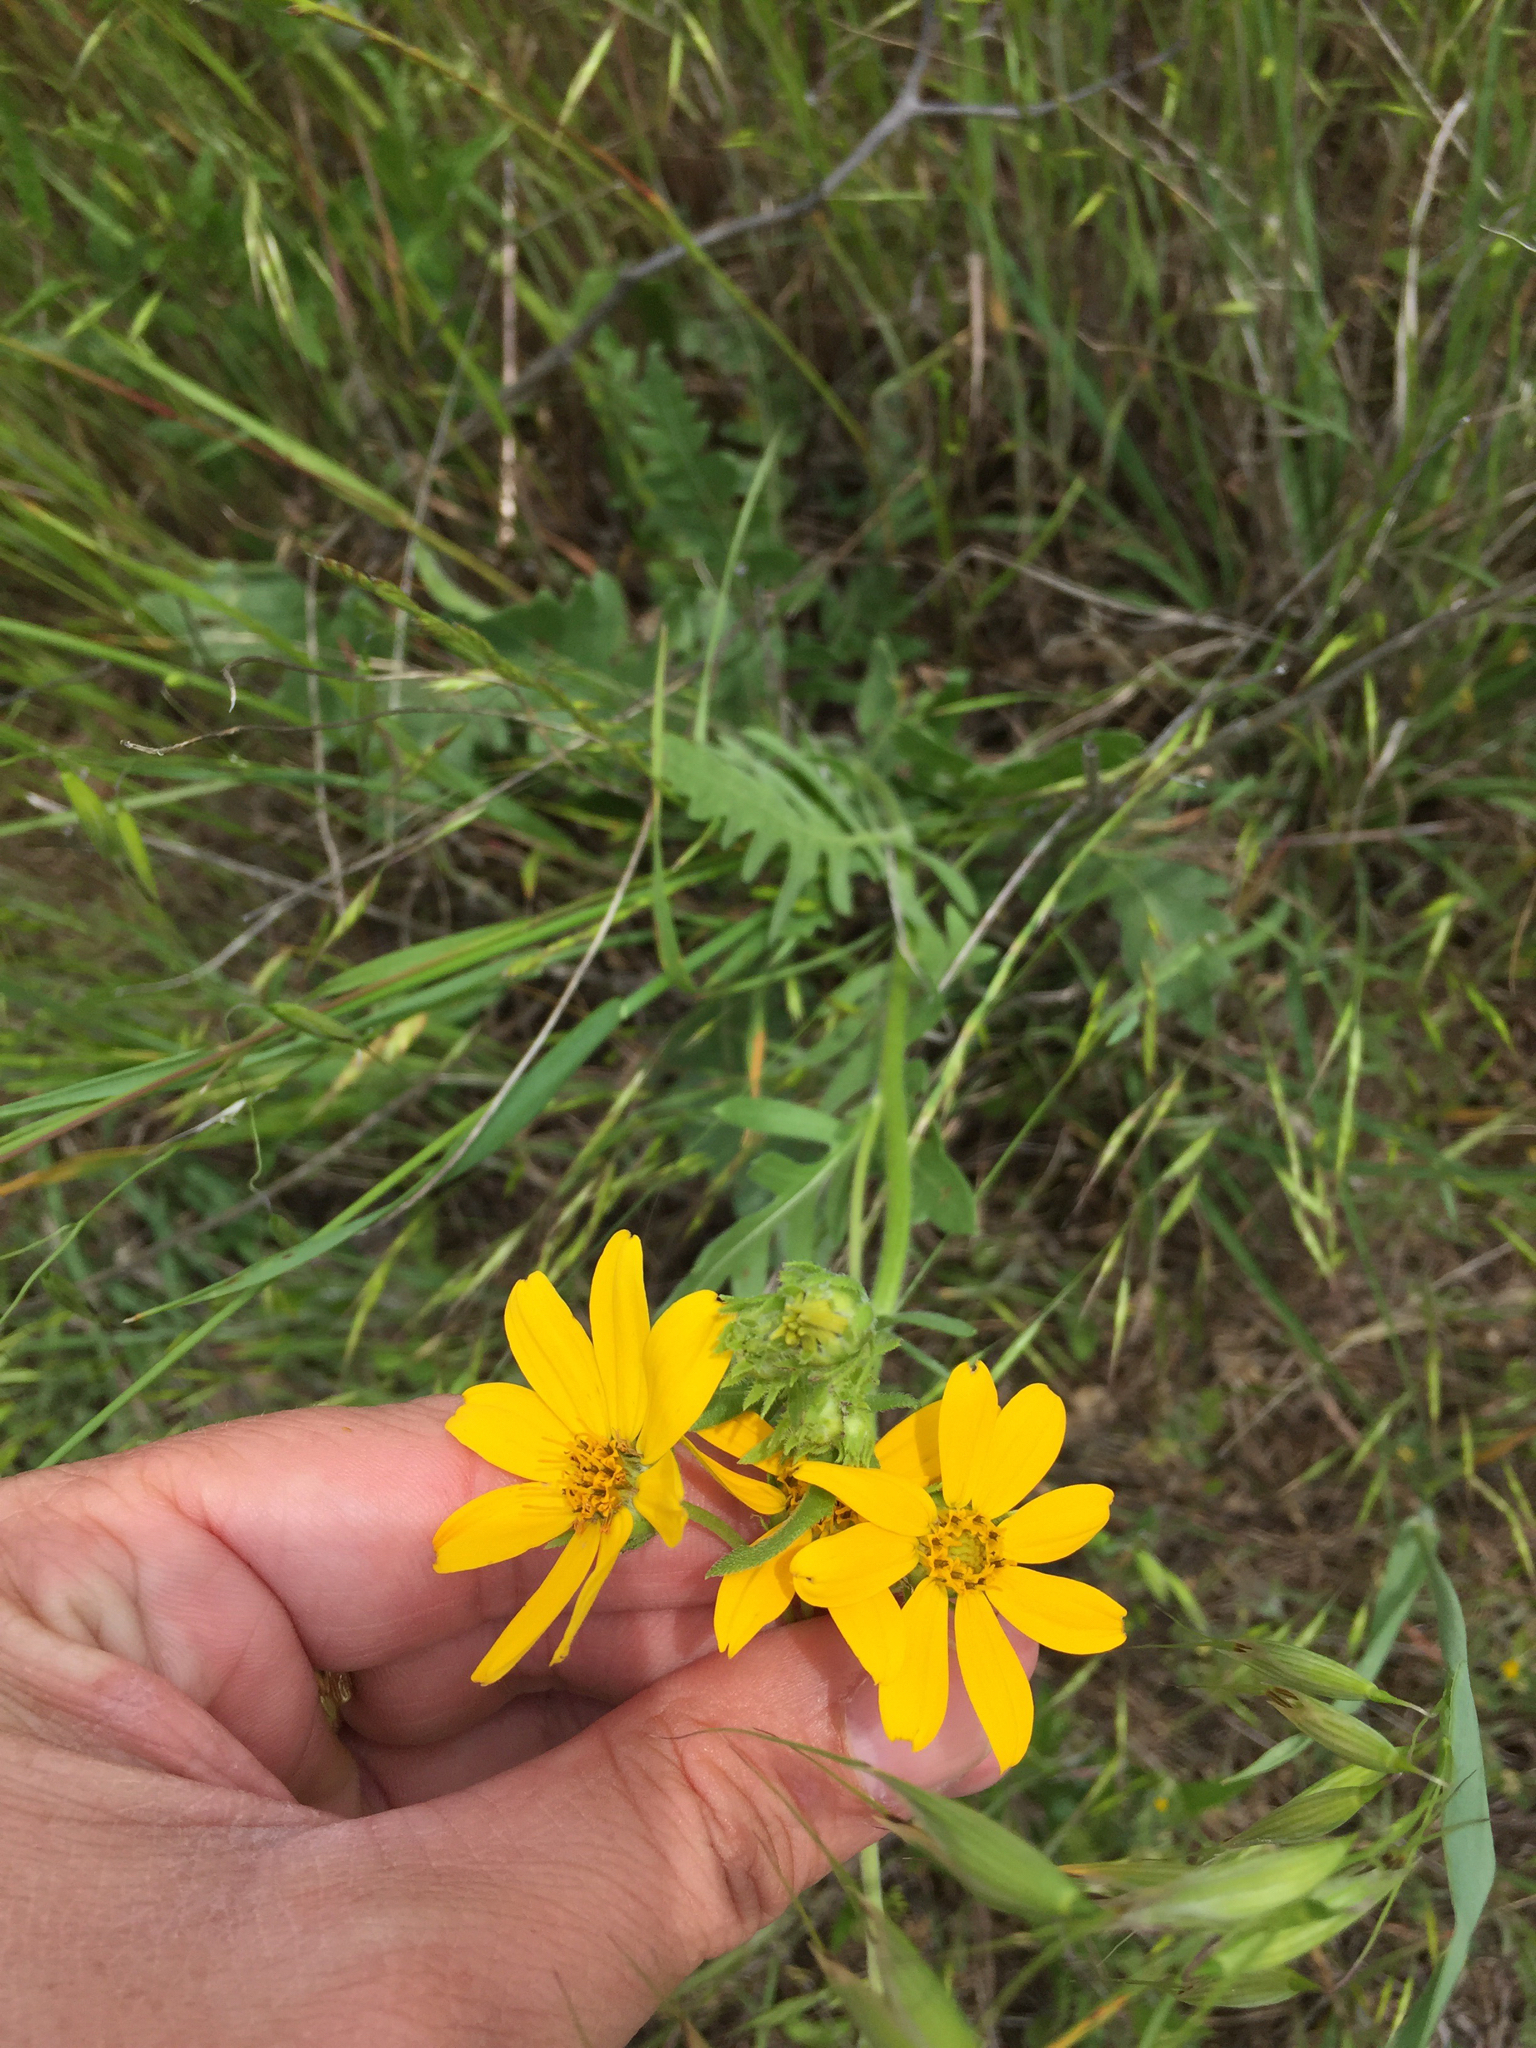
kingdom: Plantae
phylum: Tracheophyta
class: Magnoliopsida
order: Asterales
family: Asteraceae
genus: Engelmannia
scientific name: Engelmannia peristenia
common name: Engelmann's daisy
